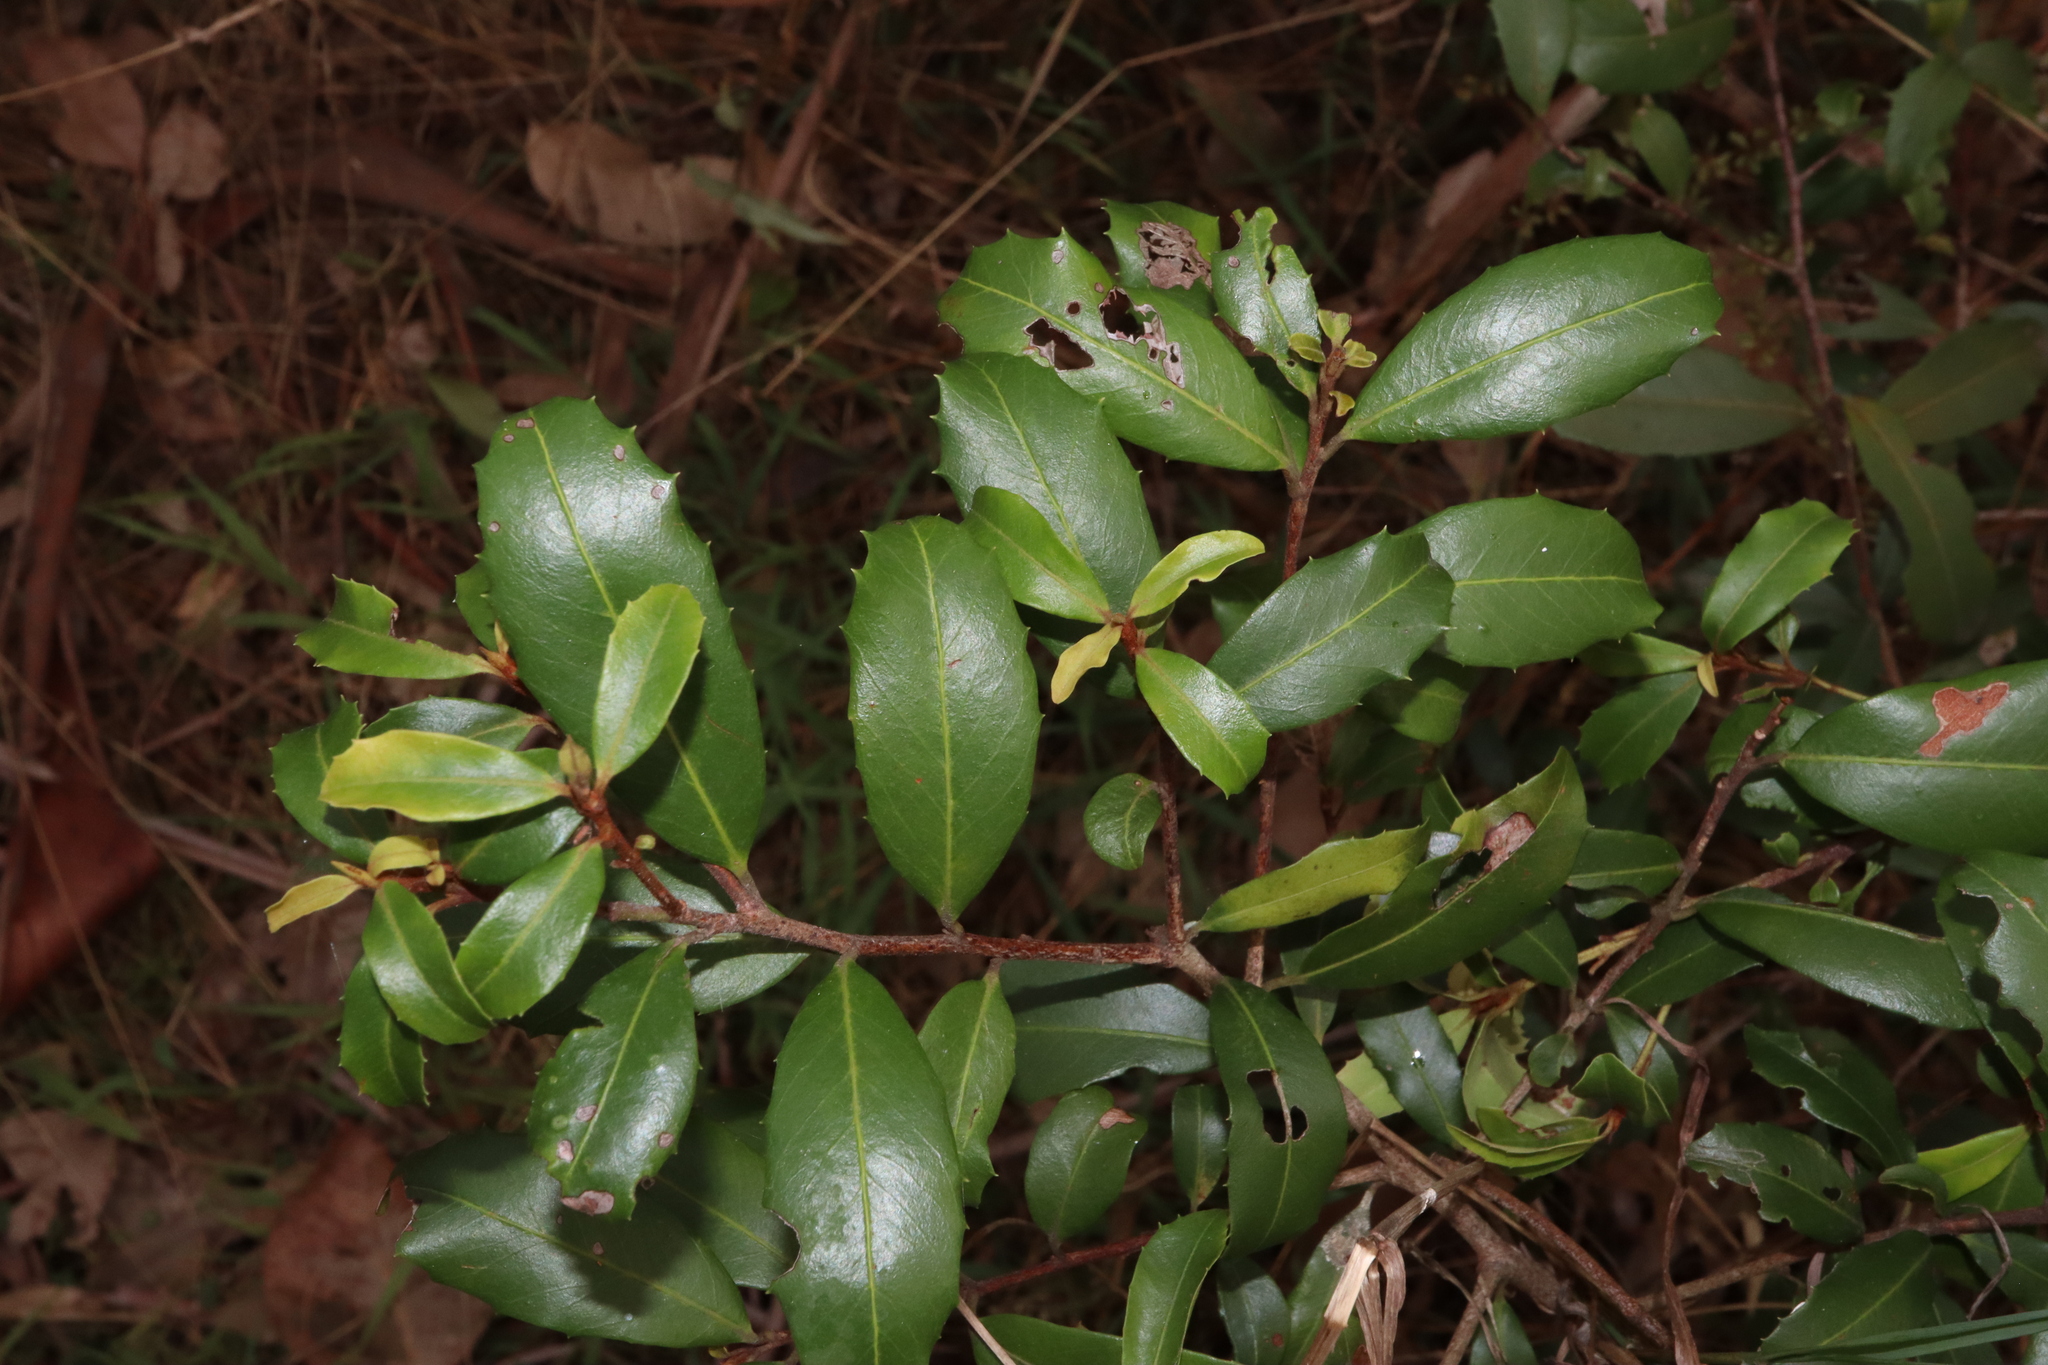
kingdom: Plantae
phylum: Tracheophyta
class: Magnoliopsida
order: Ericales
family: Primulaceae
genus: Myrsine
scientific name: Myrsine variabilis
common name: Brush muttonwood
